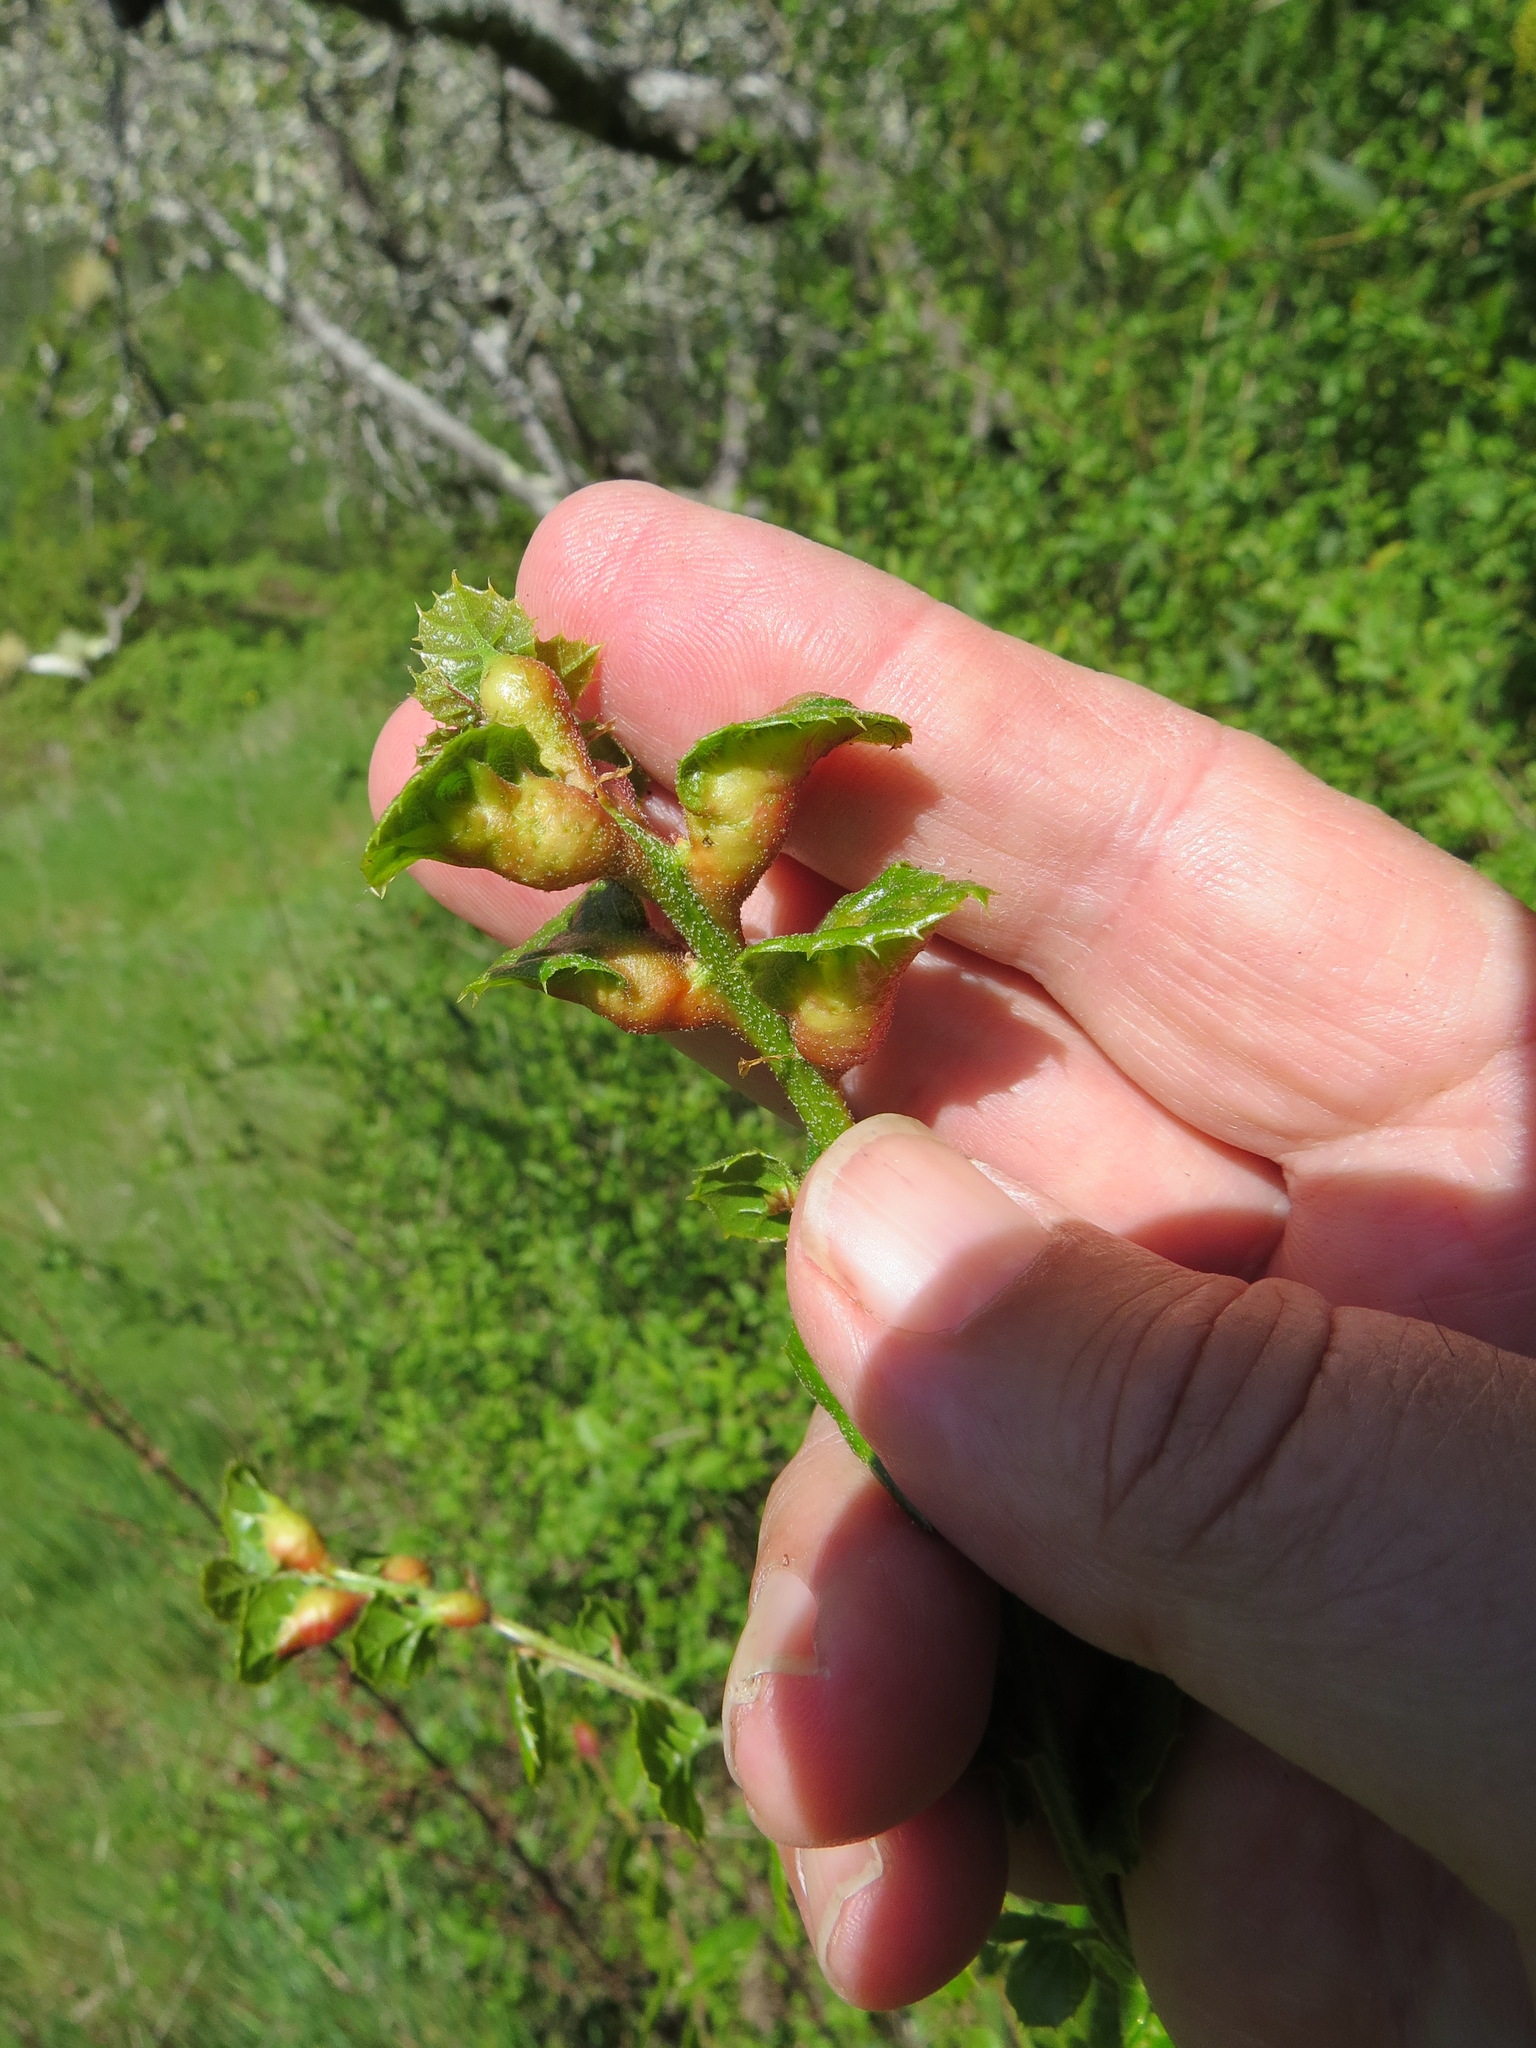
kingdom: Animalia
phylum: Arthropoda
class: Insecta
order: Hymenoptera
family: Cynipidae
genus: Melikaiella
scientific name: Melikaiella
